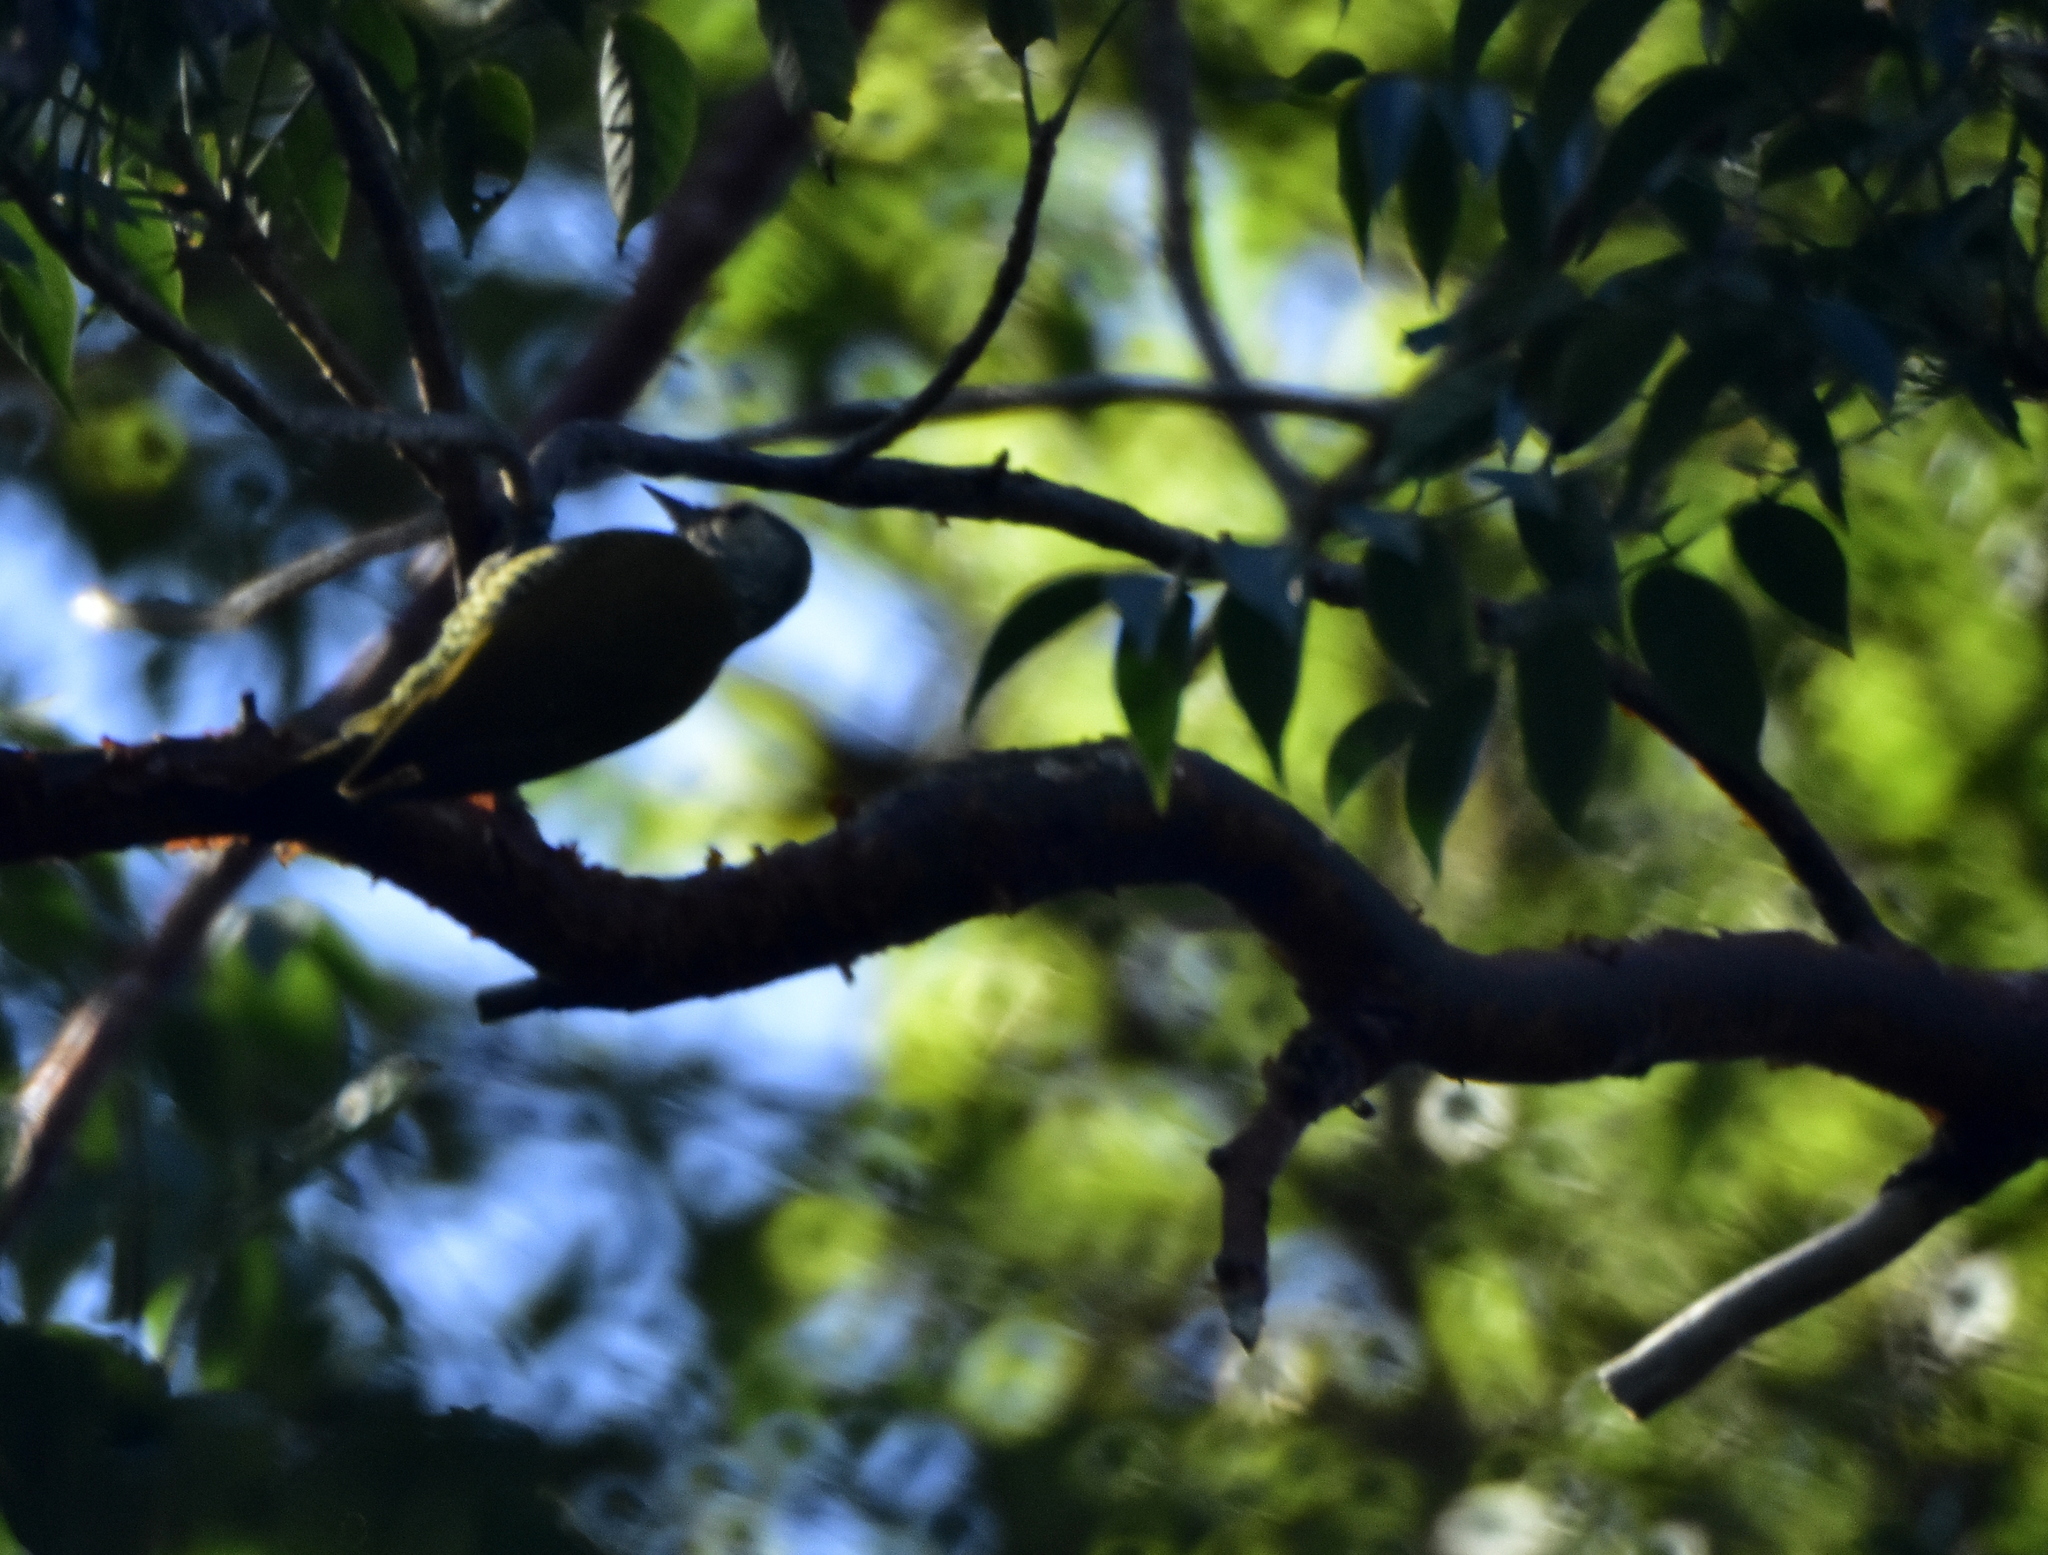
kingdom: Animalia
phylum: Chordata
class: Aves
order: Piciformes
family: Picidae
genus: Colaptes
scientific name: Colaptes auricularis
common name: Grey-crowned woodpecker
